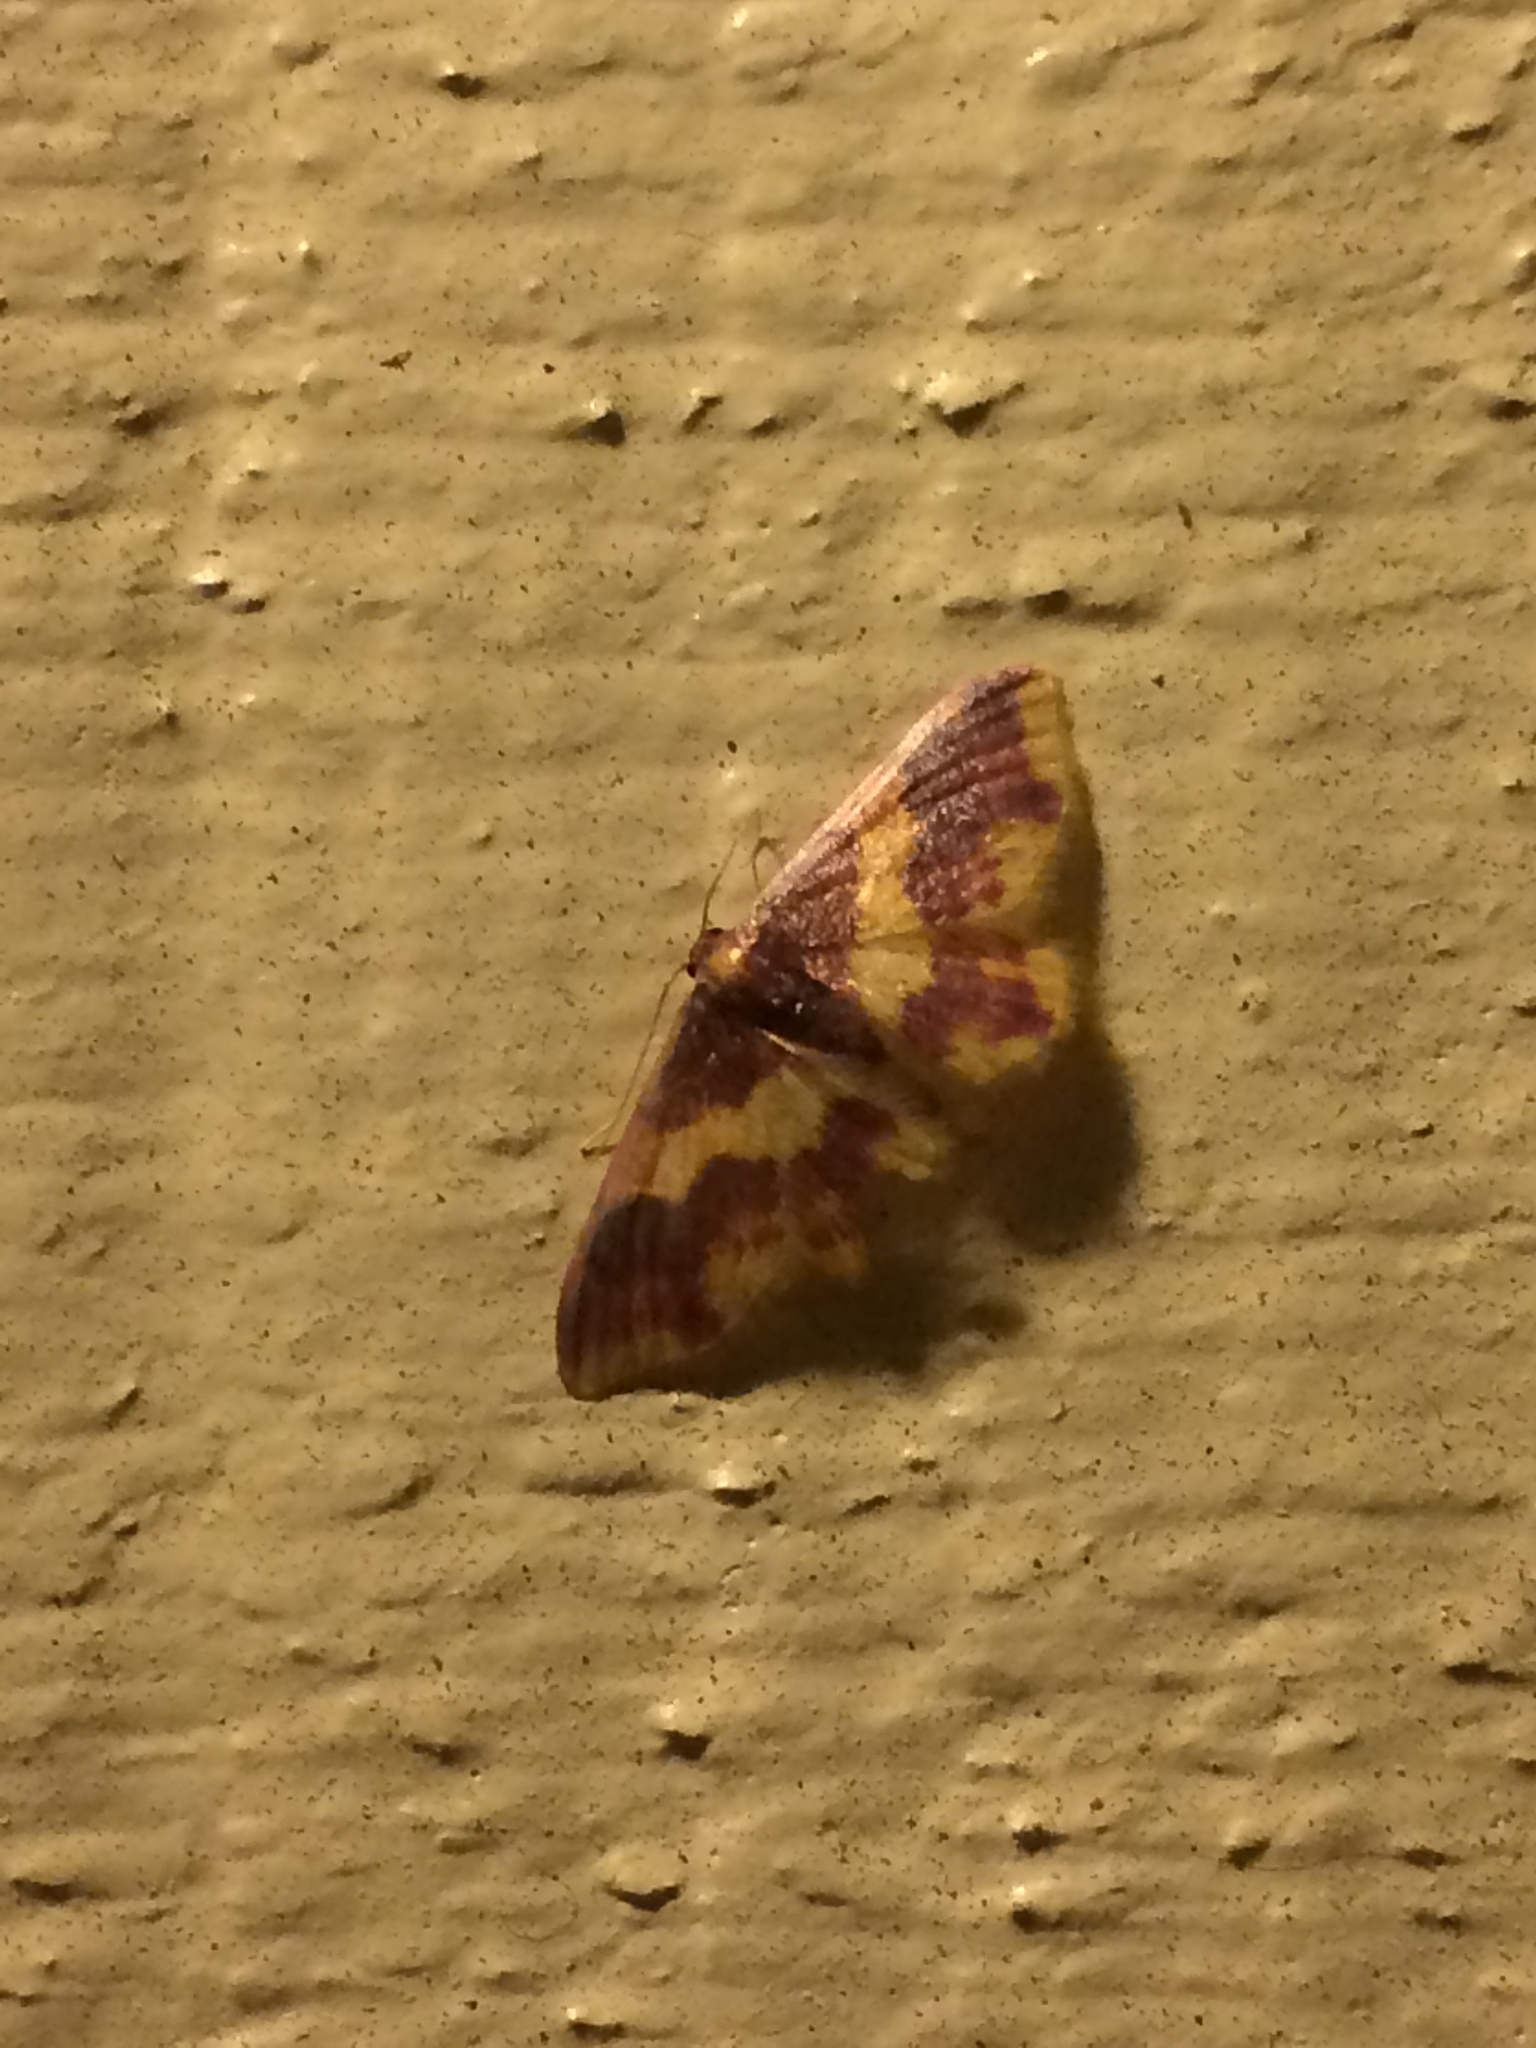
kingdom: Animalia
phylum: Arthropoda
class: Insecta
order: Lepidoptera
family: Geometridae
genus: Lophosis
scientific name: Lophosis labeculata
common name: Stained lophosis moth
